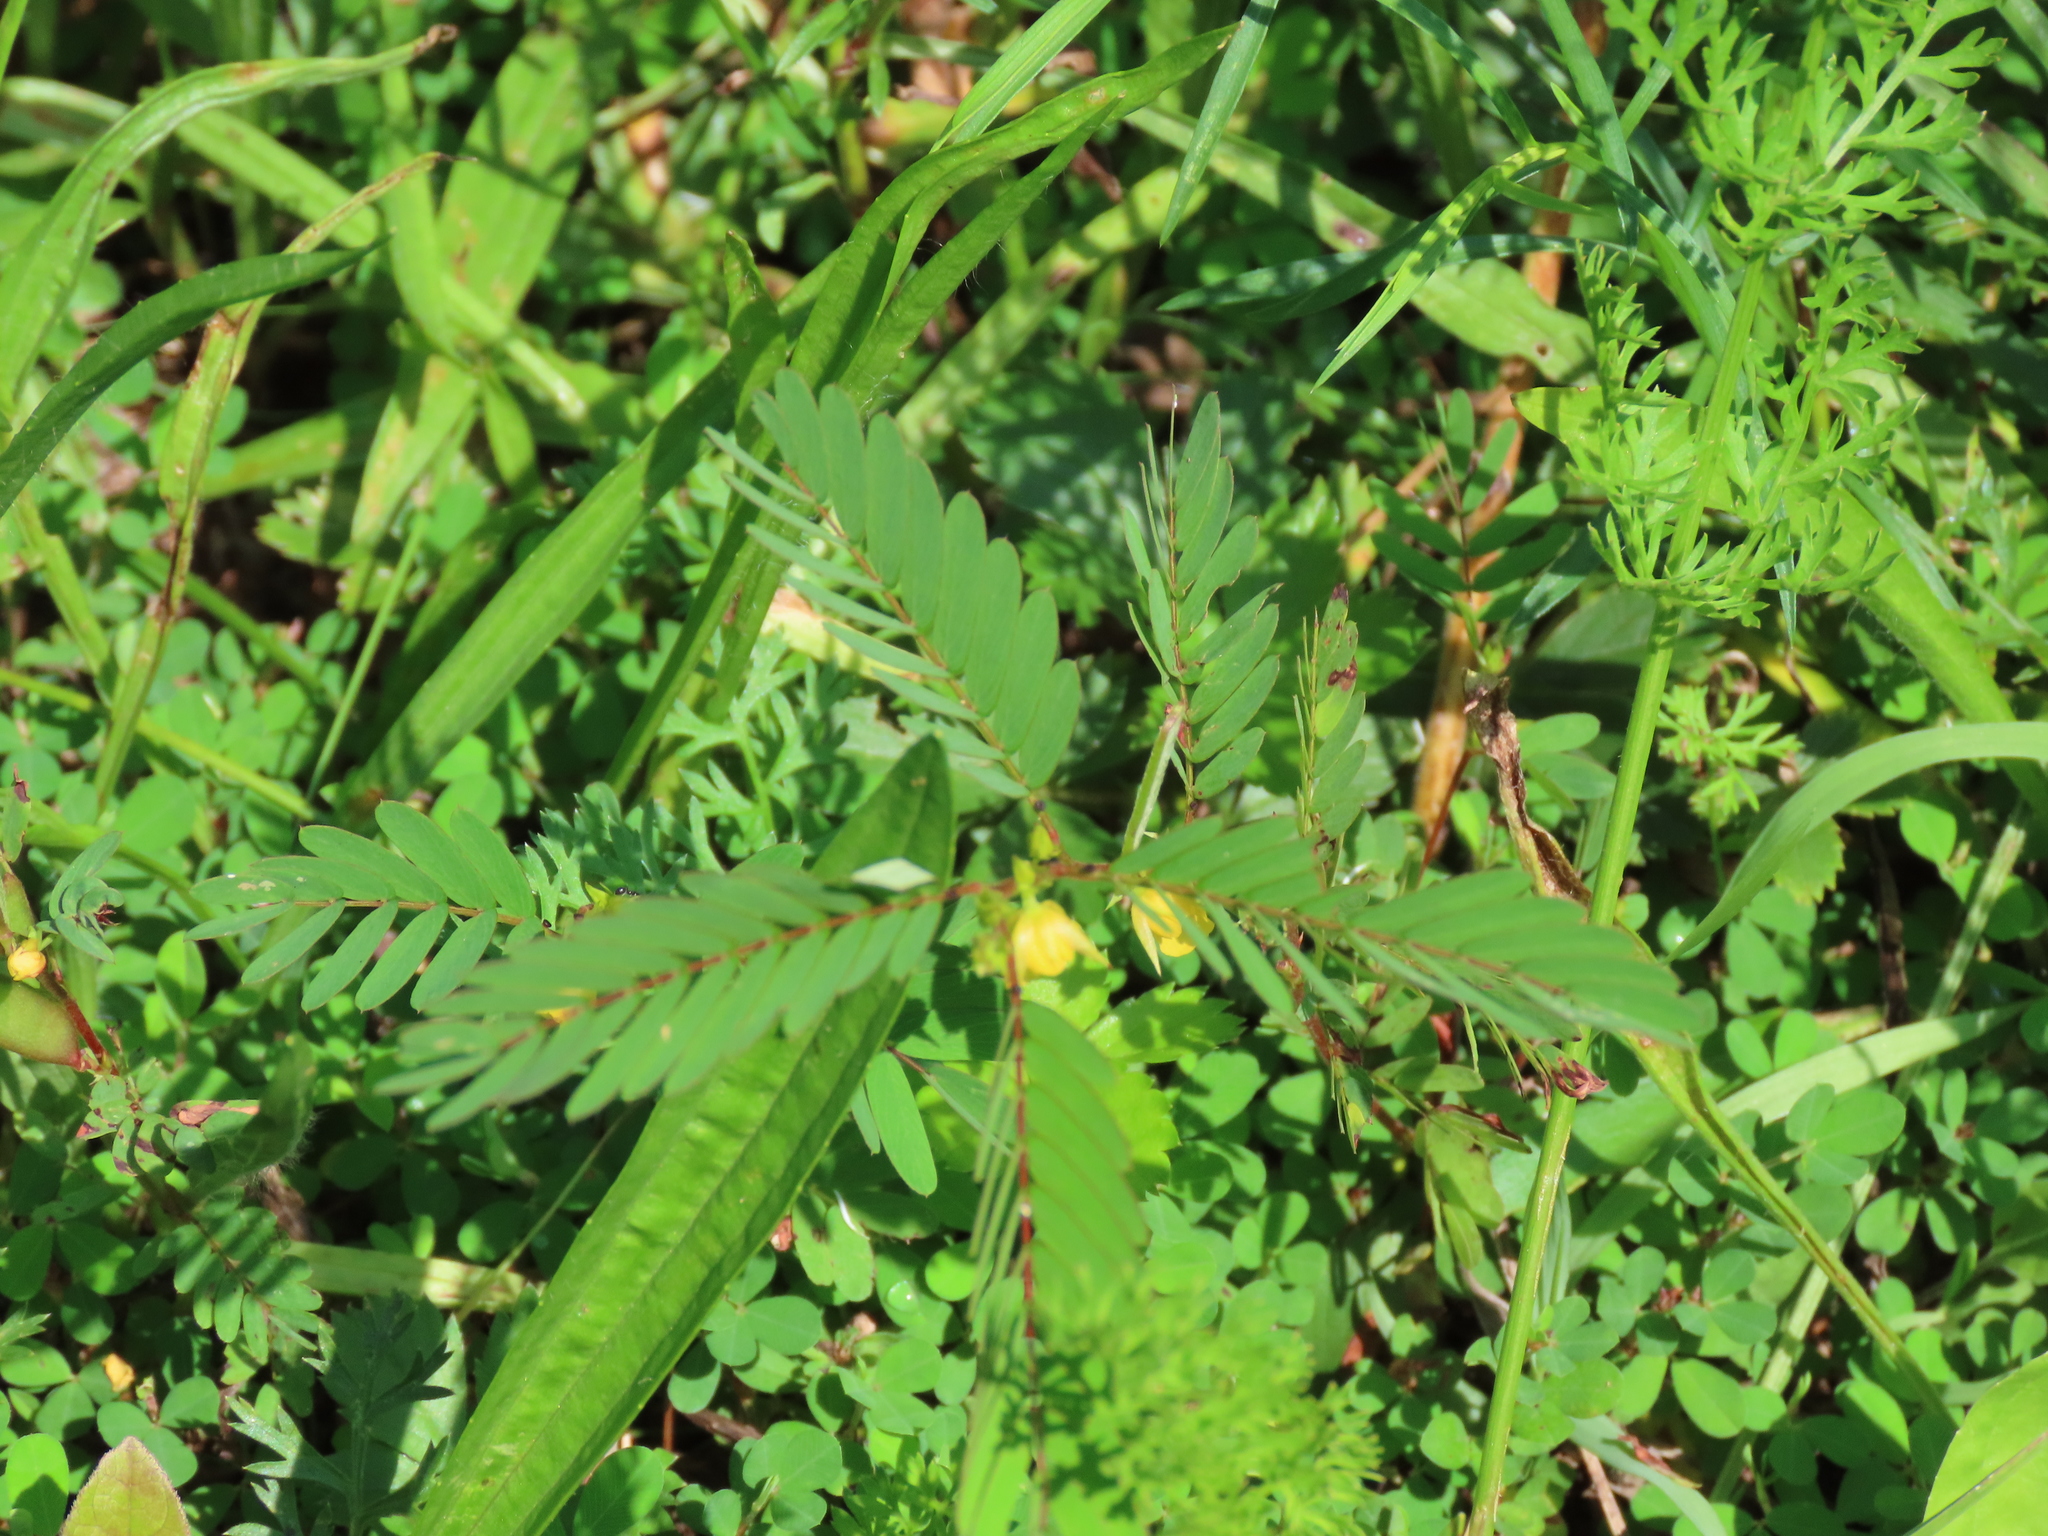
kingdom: Plantae
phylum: Tracheophyta
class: Magnoliopsida
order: Fabales
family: Fabaceae
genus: Chamaecrista
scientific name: Chamaecrista nictitans
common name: Sensitive cassia
